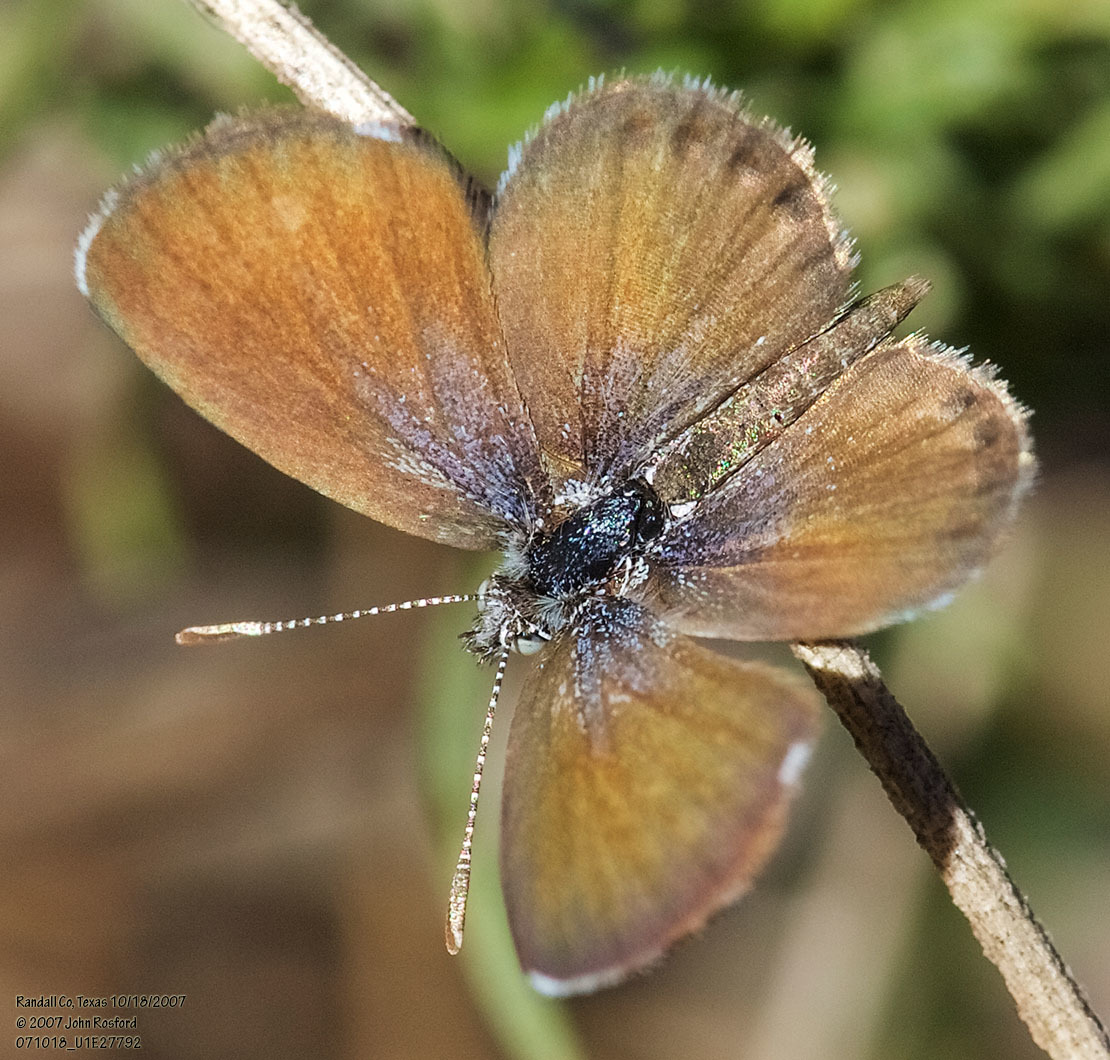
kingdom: Animalia
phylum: Arthropoda
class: Insecta
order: Lepidoptera
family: Lycaenidae
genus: Brephidium
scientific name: Brephidium exilis
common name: Pygmy blue
